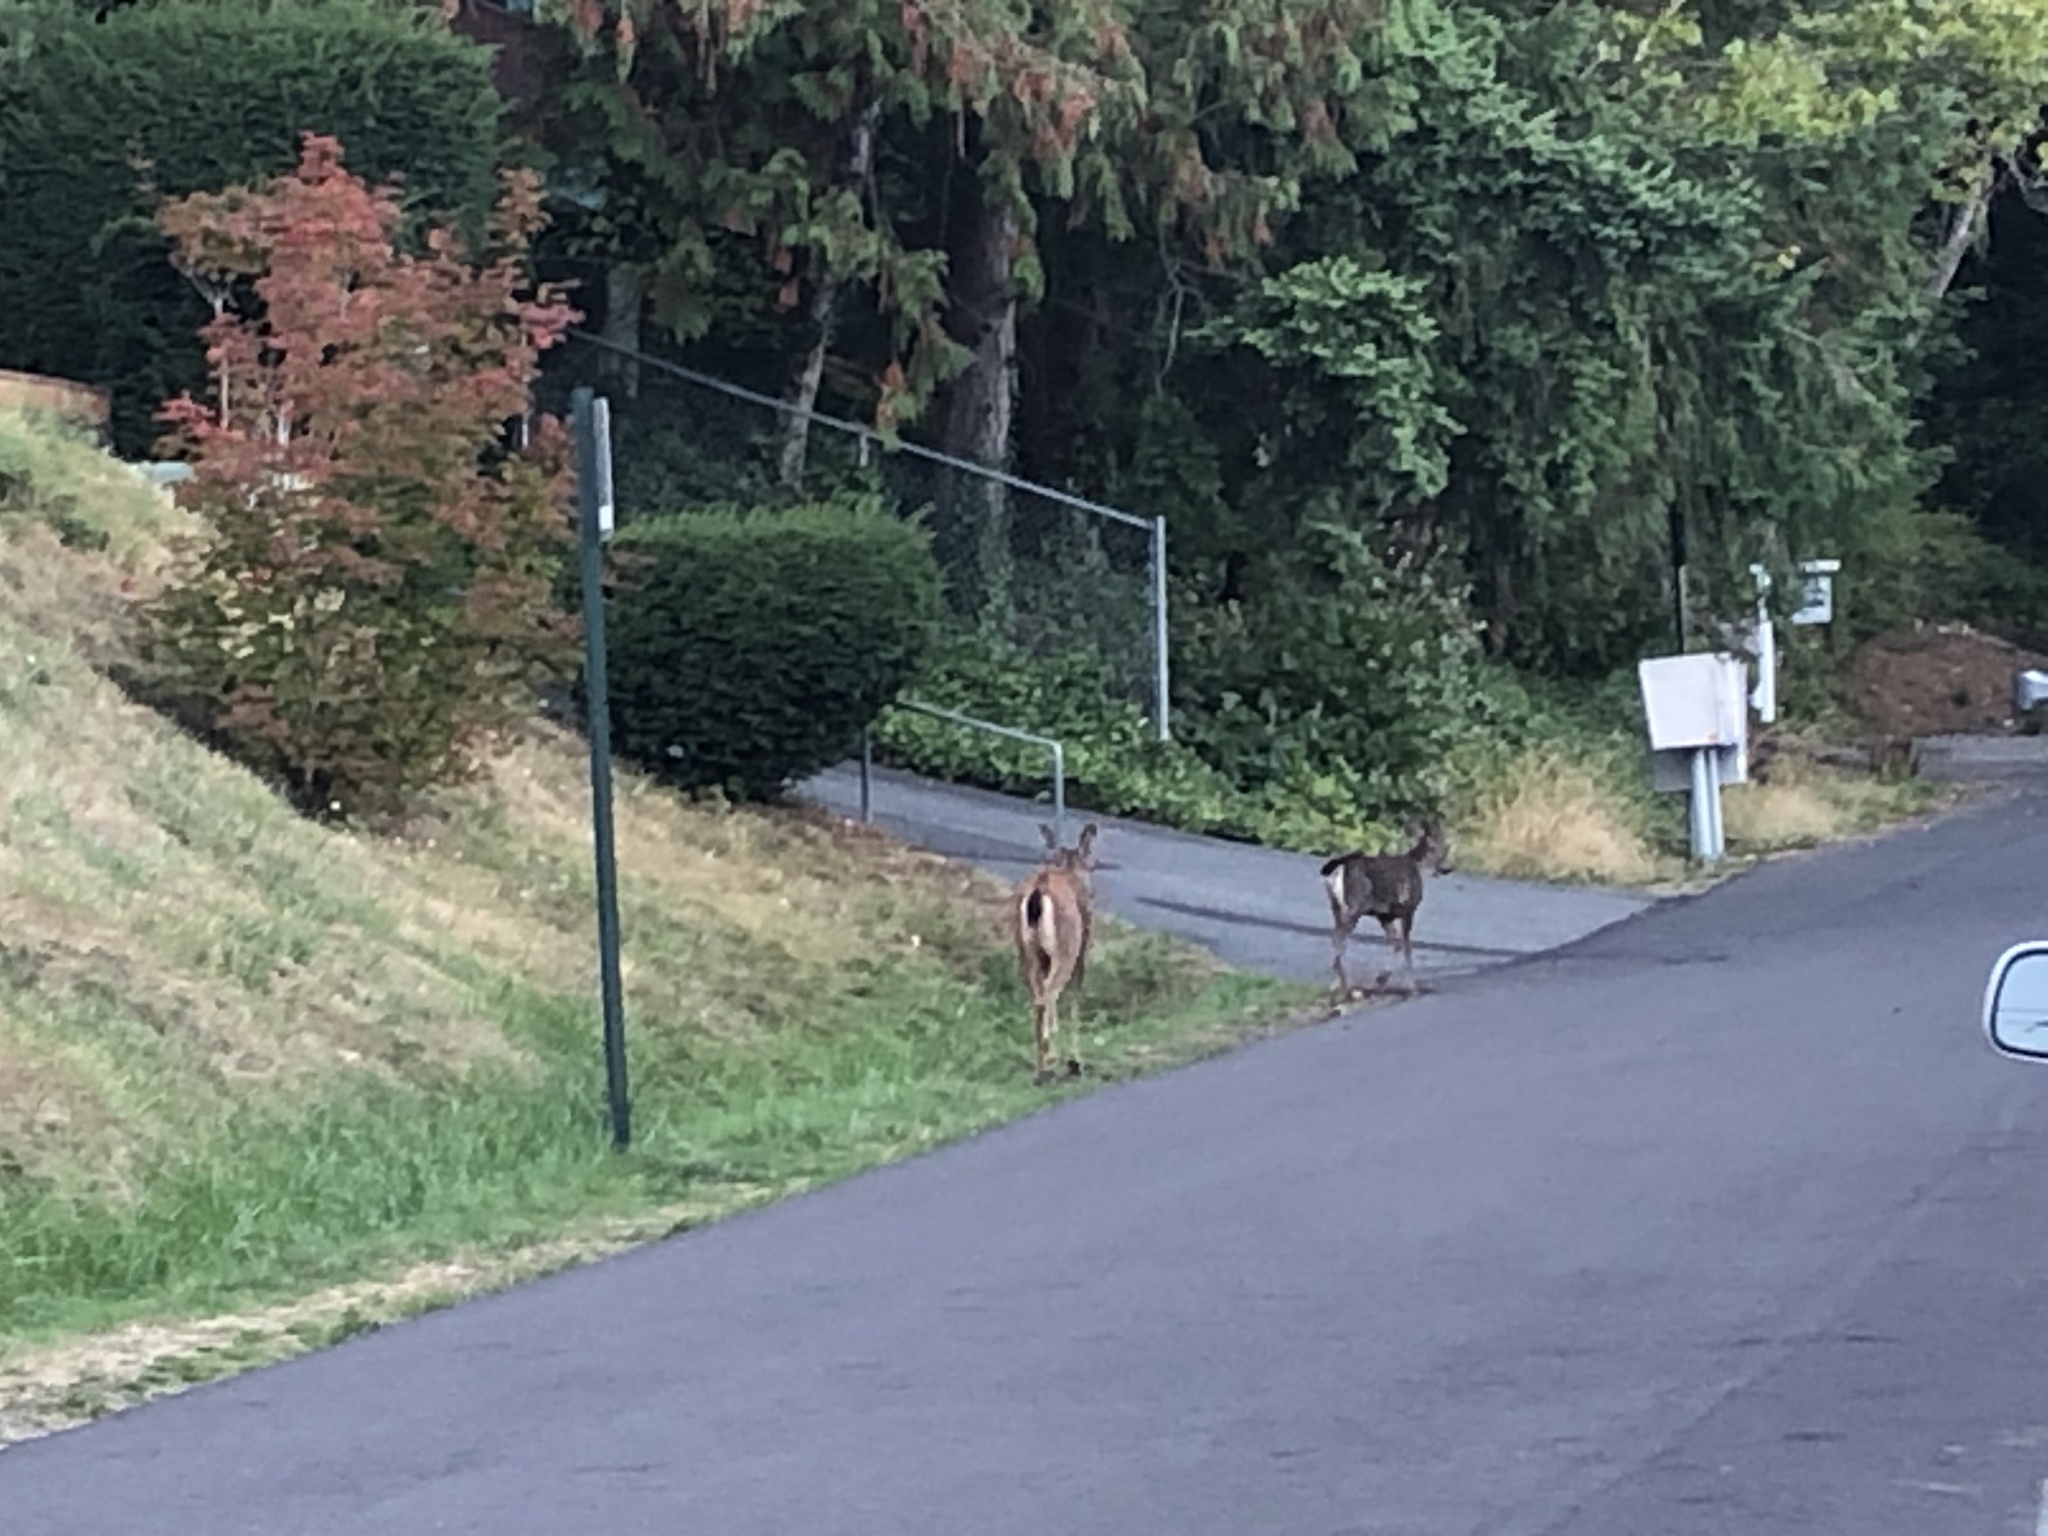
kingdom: Animalia
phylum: Chordata
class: Mammalia
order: Artiodactyla
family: Cervidae
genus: Odocoileus
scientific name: Odocoileus hemionus
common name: Mule deer
